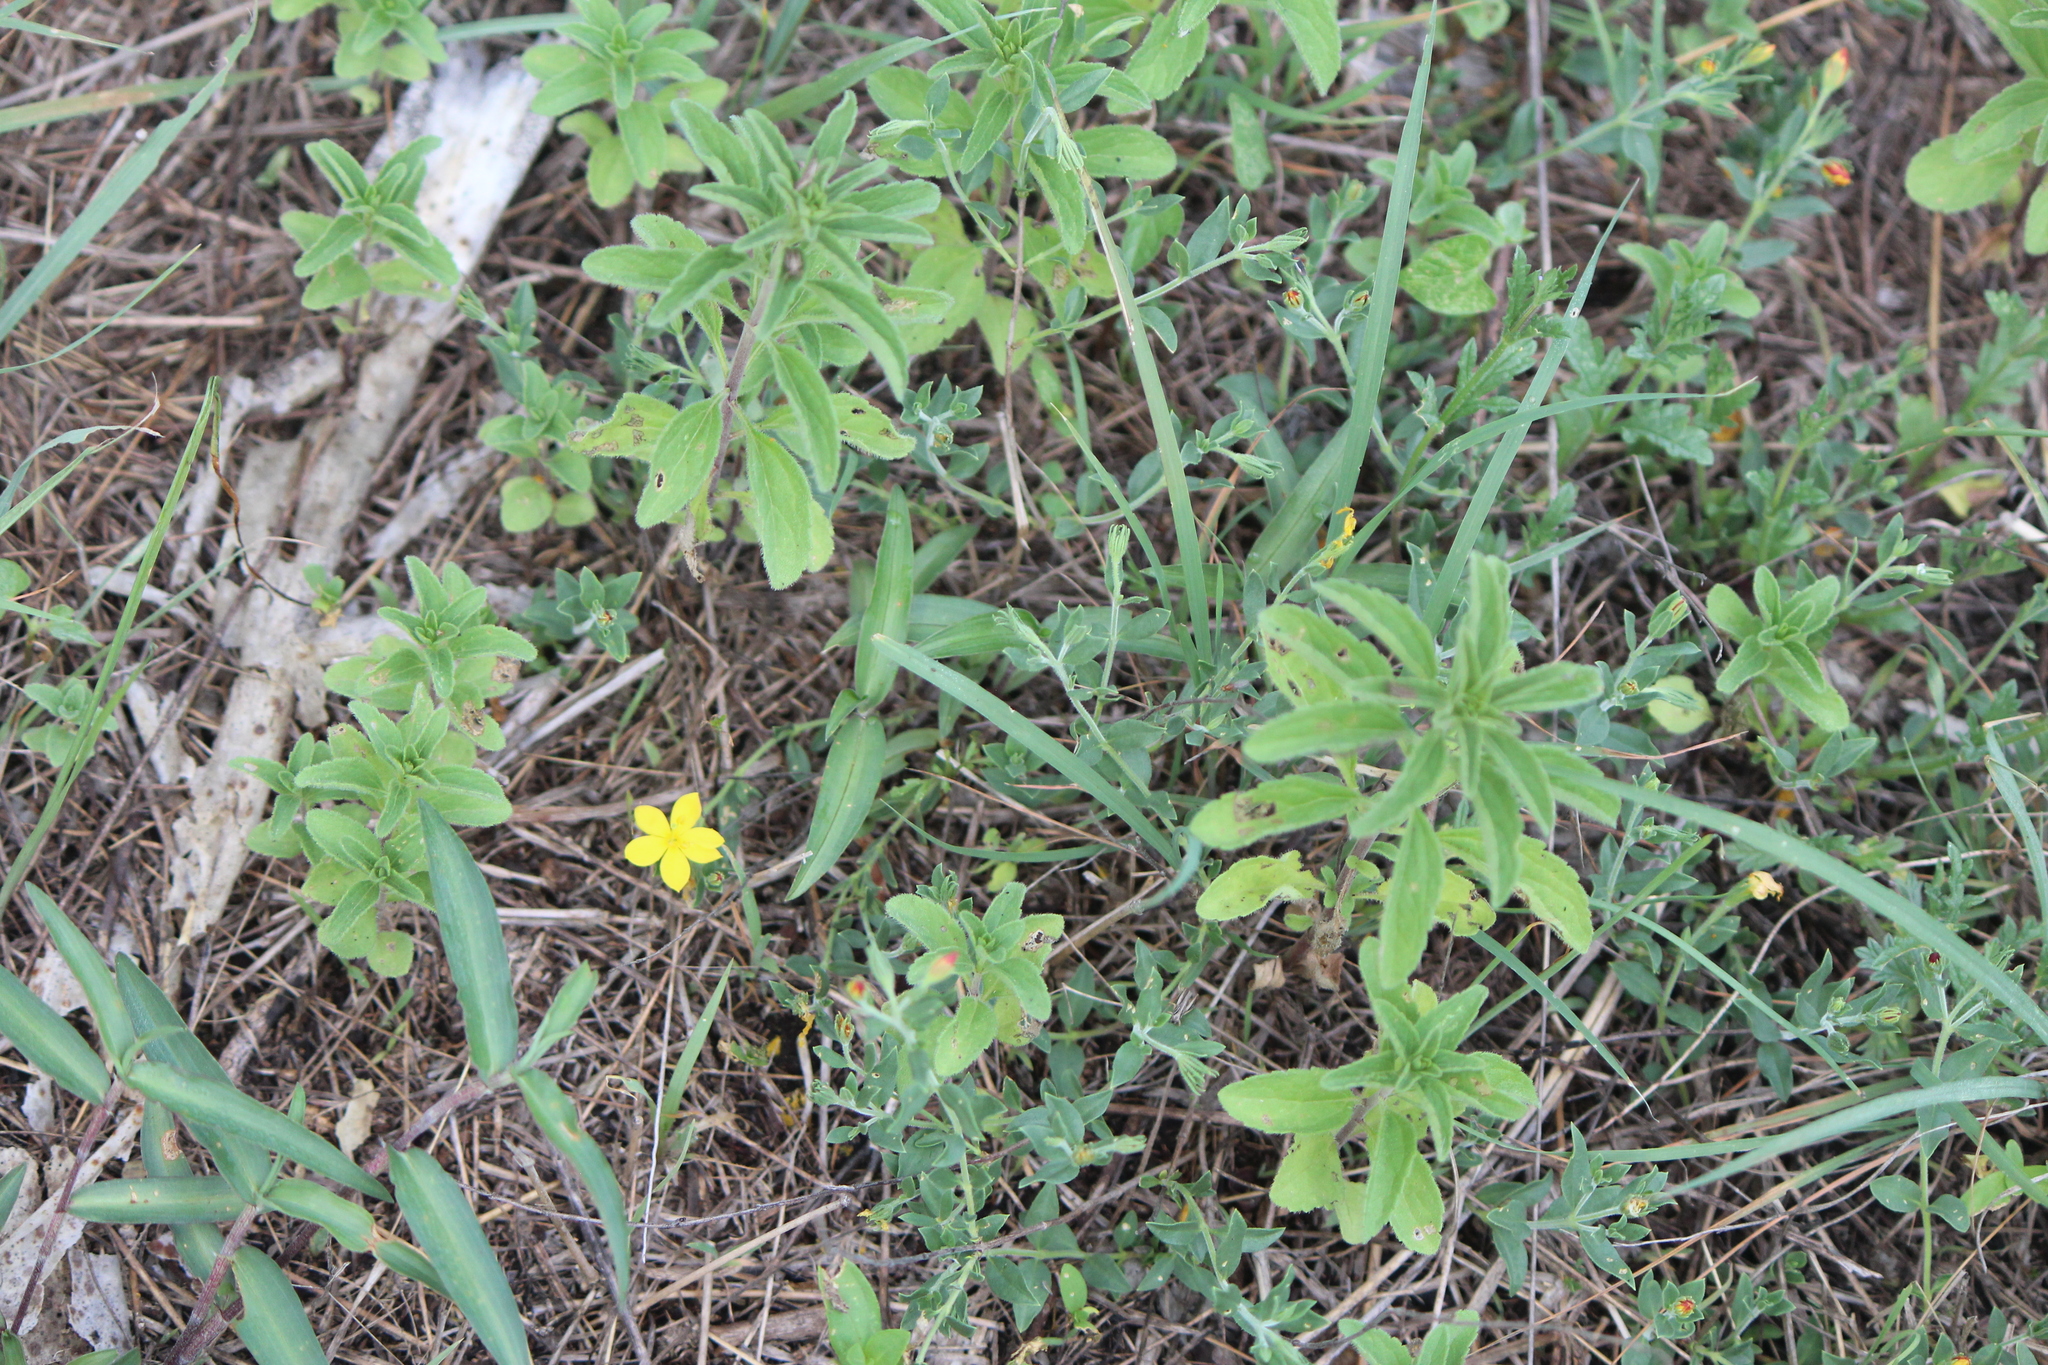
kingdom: Plantae
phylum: Tracheophyta
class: Magnoliopsida
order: Lamiales
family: Oleaceae
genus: Menodora
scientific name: Menodora scabra
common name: Rough menodora
